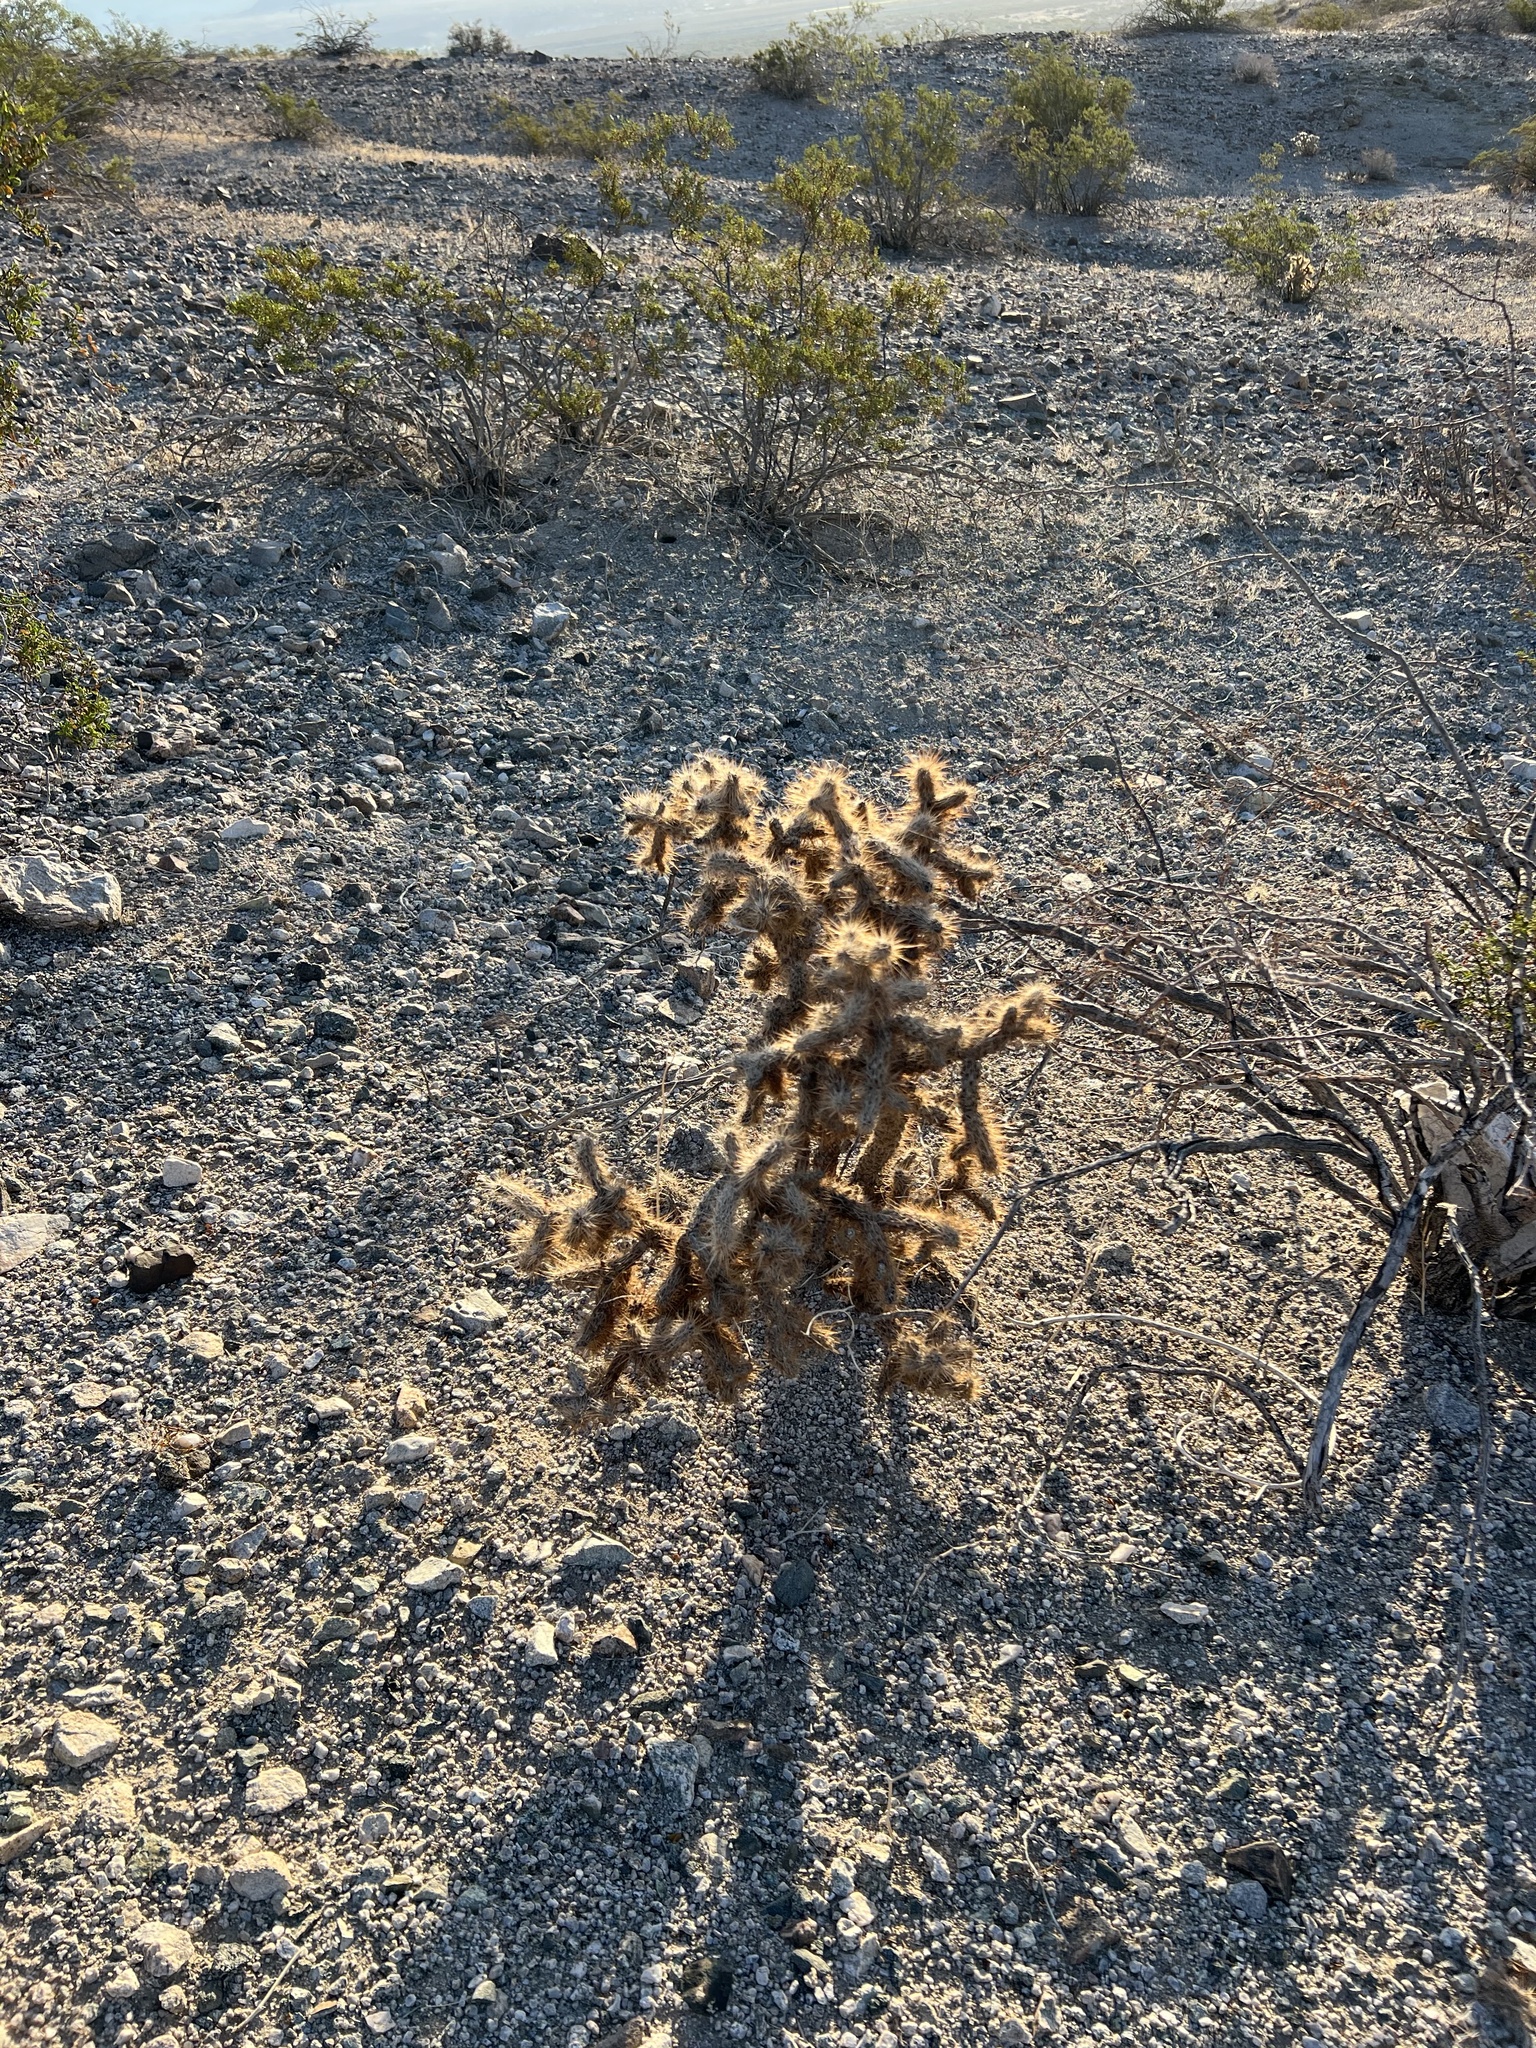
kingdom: Plantae
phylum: Tracheophyta
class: Magnoliopsida
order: Caryophyllales
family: Cactaceae
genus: Cylindropuntia
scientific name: Cylindropuntia echinocarpa
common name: Ground cholla
